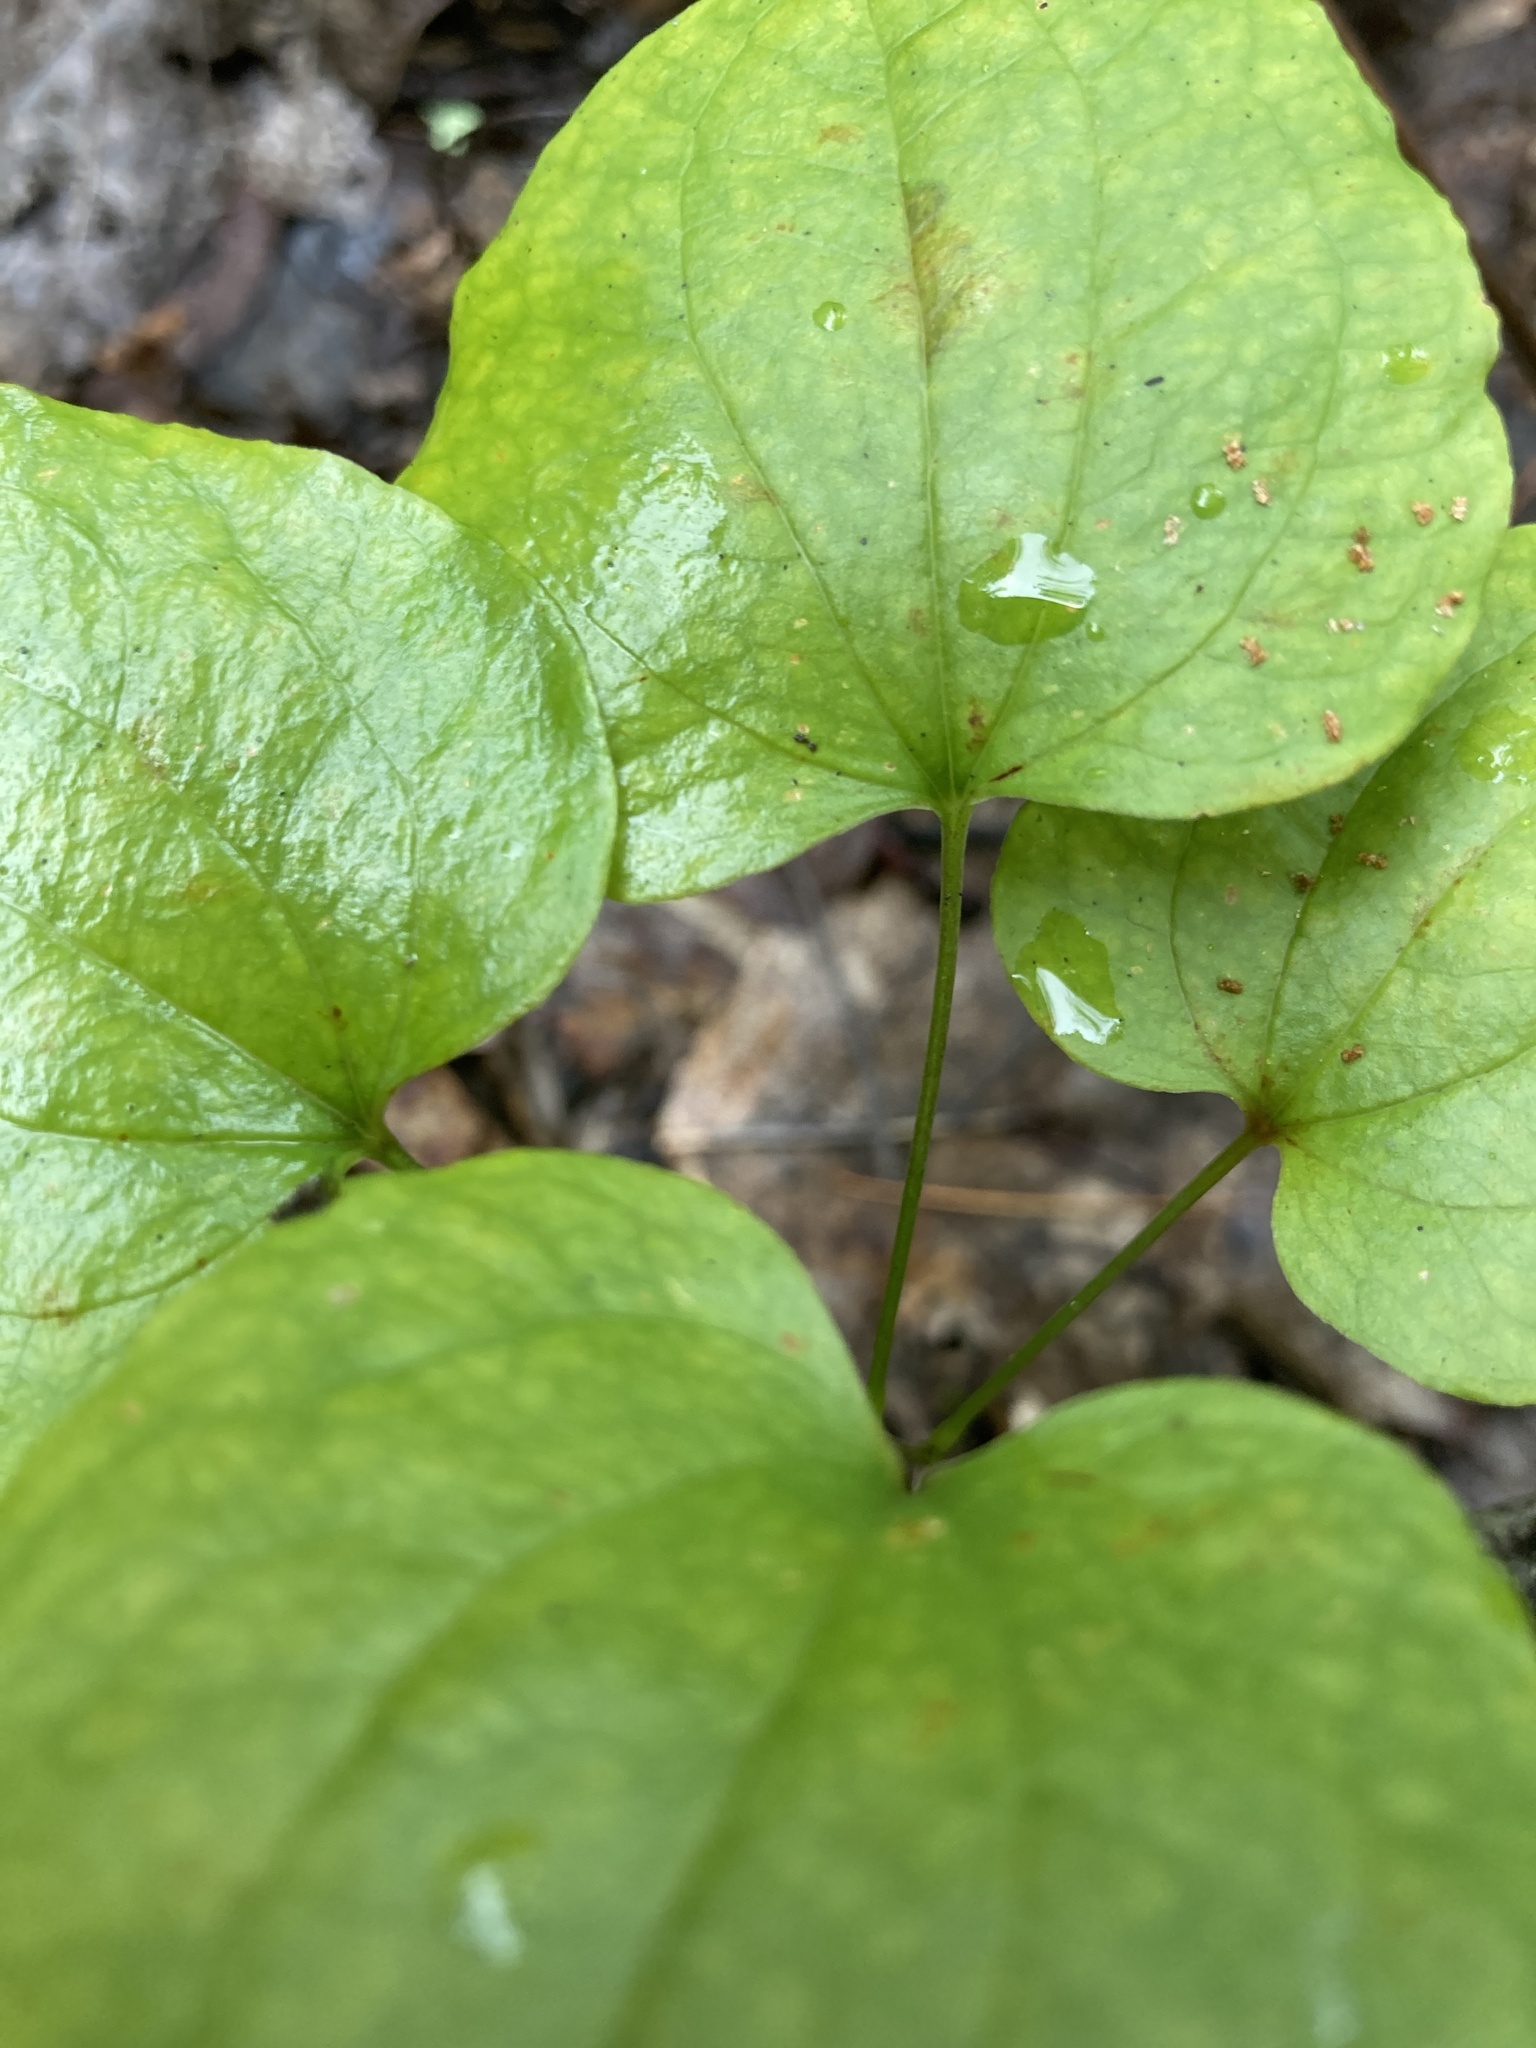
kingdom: Plantae
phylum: Tracheophyta
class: Liliopsida
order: Liliales
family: Smilacaceae
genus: Smilax
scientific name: Smilax herbacea
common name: Jacob's-ladder
